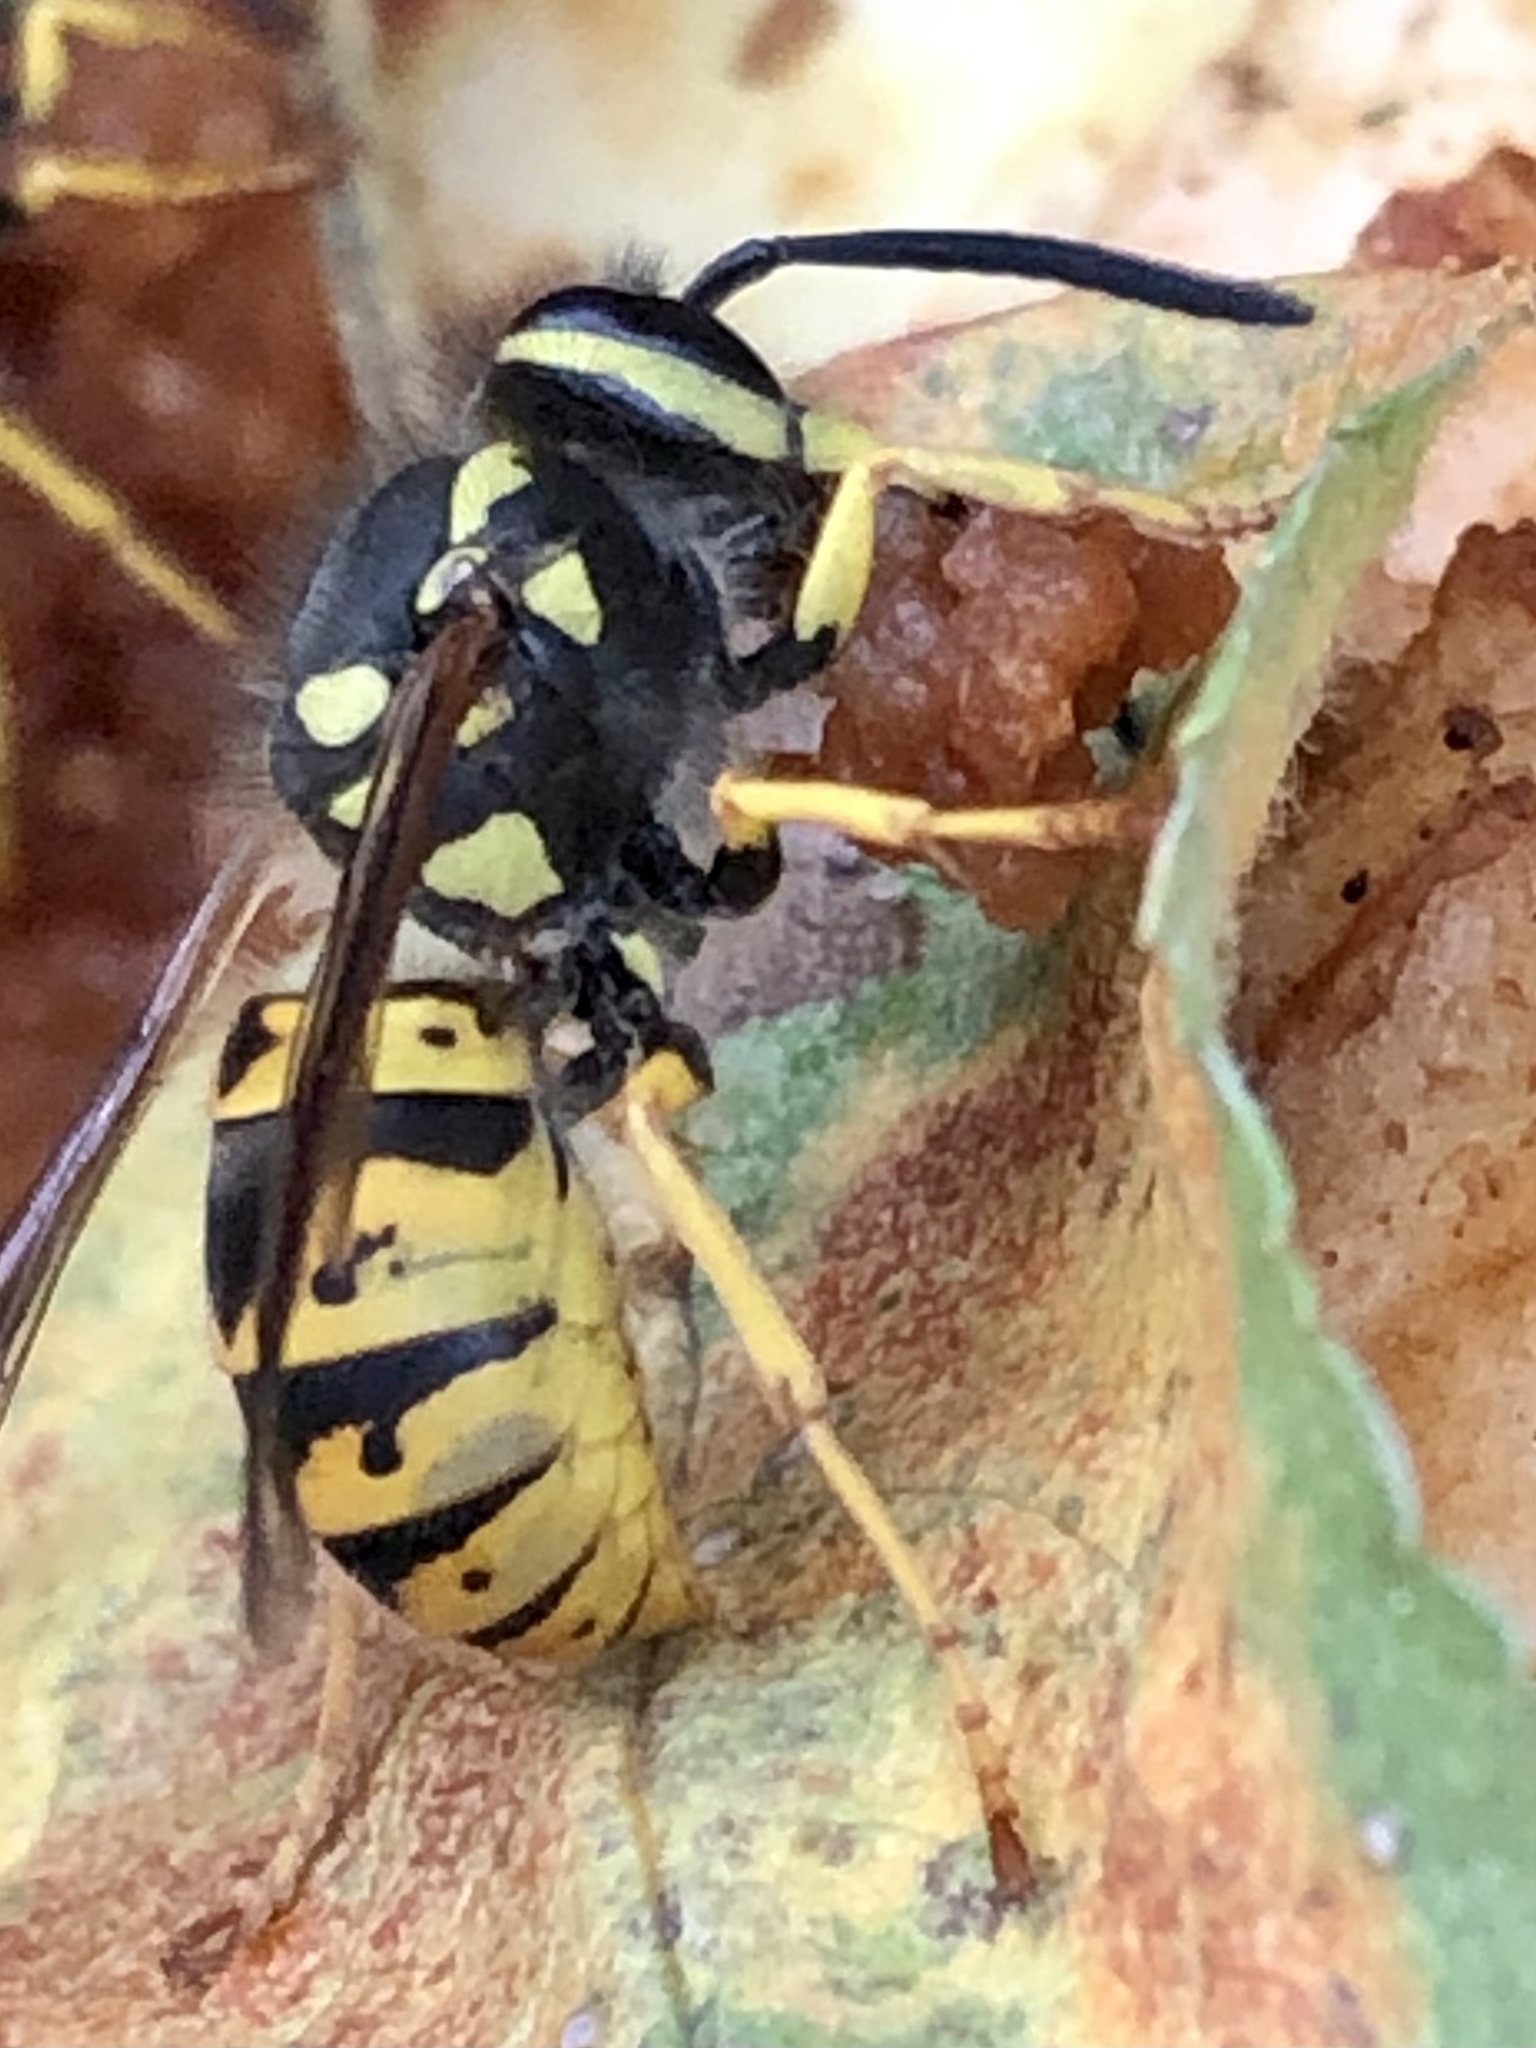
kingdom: Animalia
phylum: Arthropoda
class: Insecta
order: Hymenoptera
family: Vespidae
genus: Vespula
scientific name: Vespula germanica
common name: German wasp
